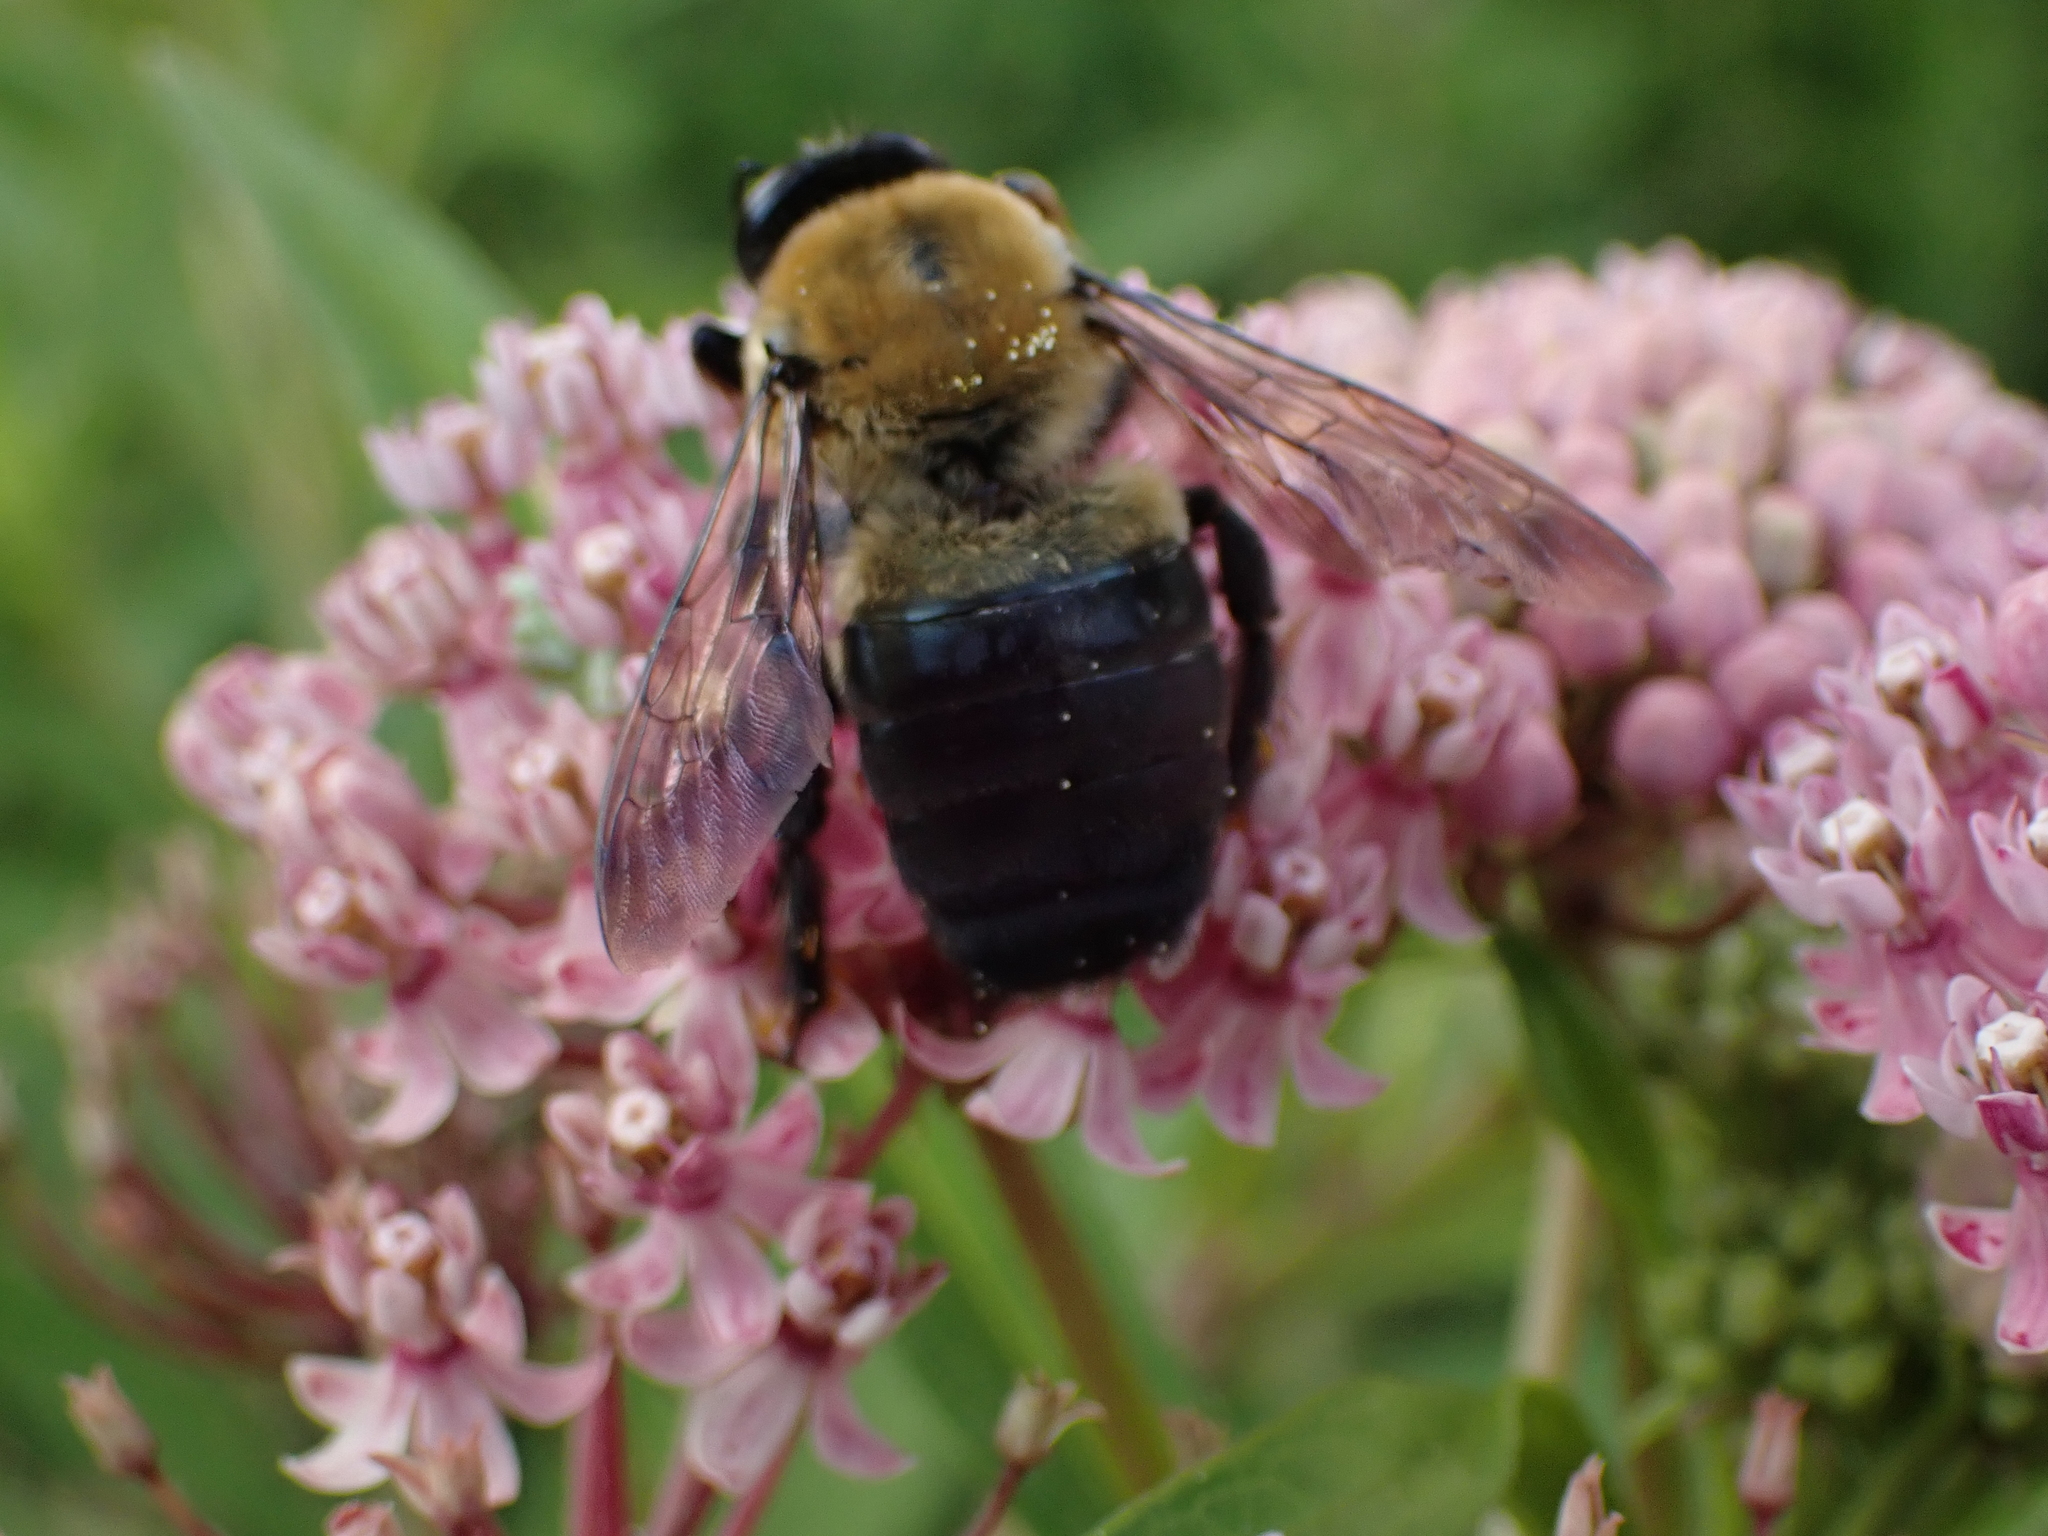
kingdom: Animalia
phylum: Arthropoda
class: Insecta
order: Hymenoptera
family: Apidae
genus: Xylocopa
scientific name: Xylocopa virginica
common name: Carpenter bee
